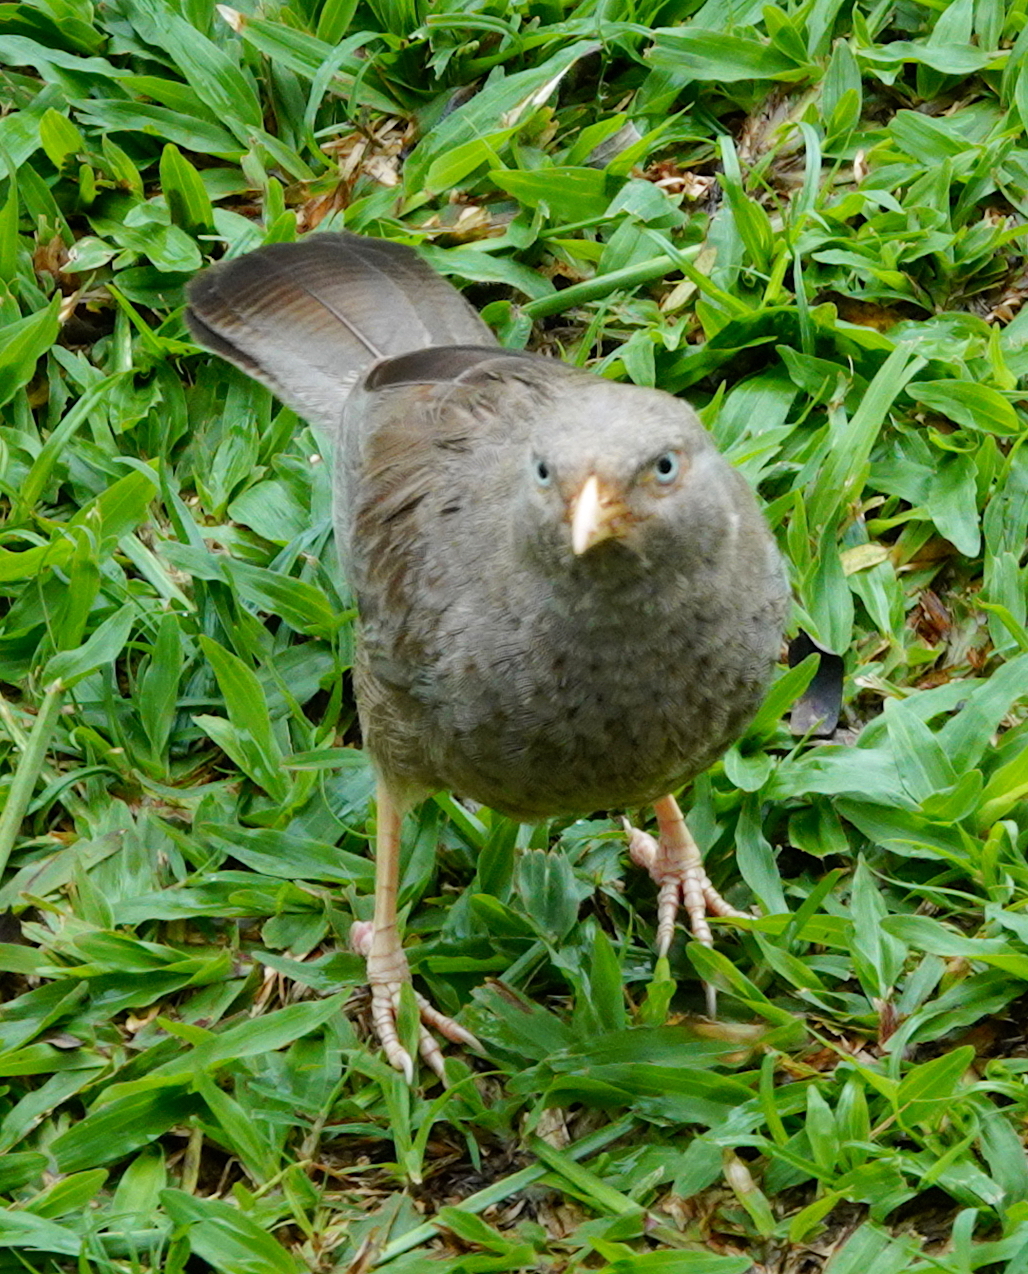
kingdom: Animalia
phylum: Chordata
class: Aves
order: Passeriformes
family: Leiothrichidae
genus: Turdoides
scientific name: Turdoides affinis
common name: Yellow-billed babbler
